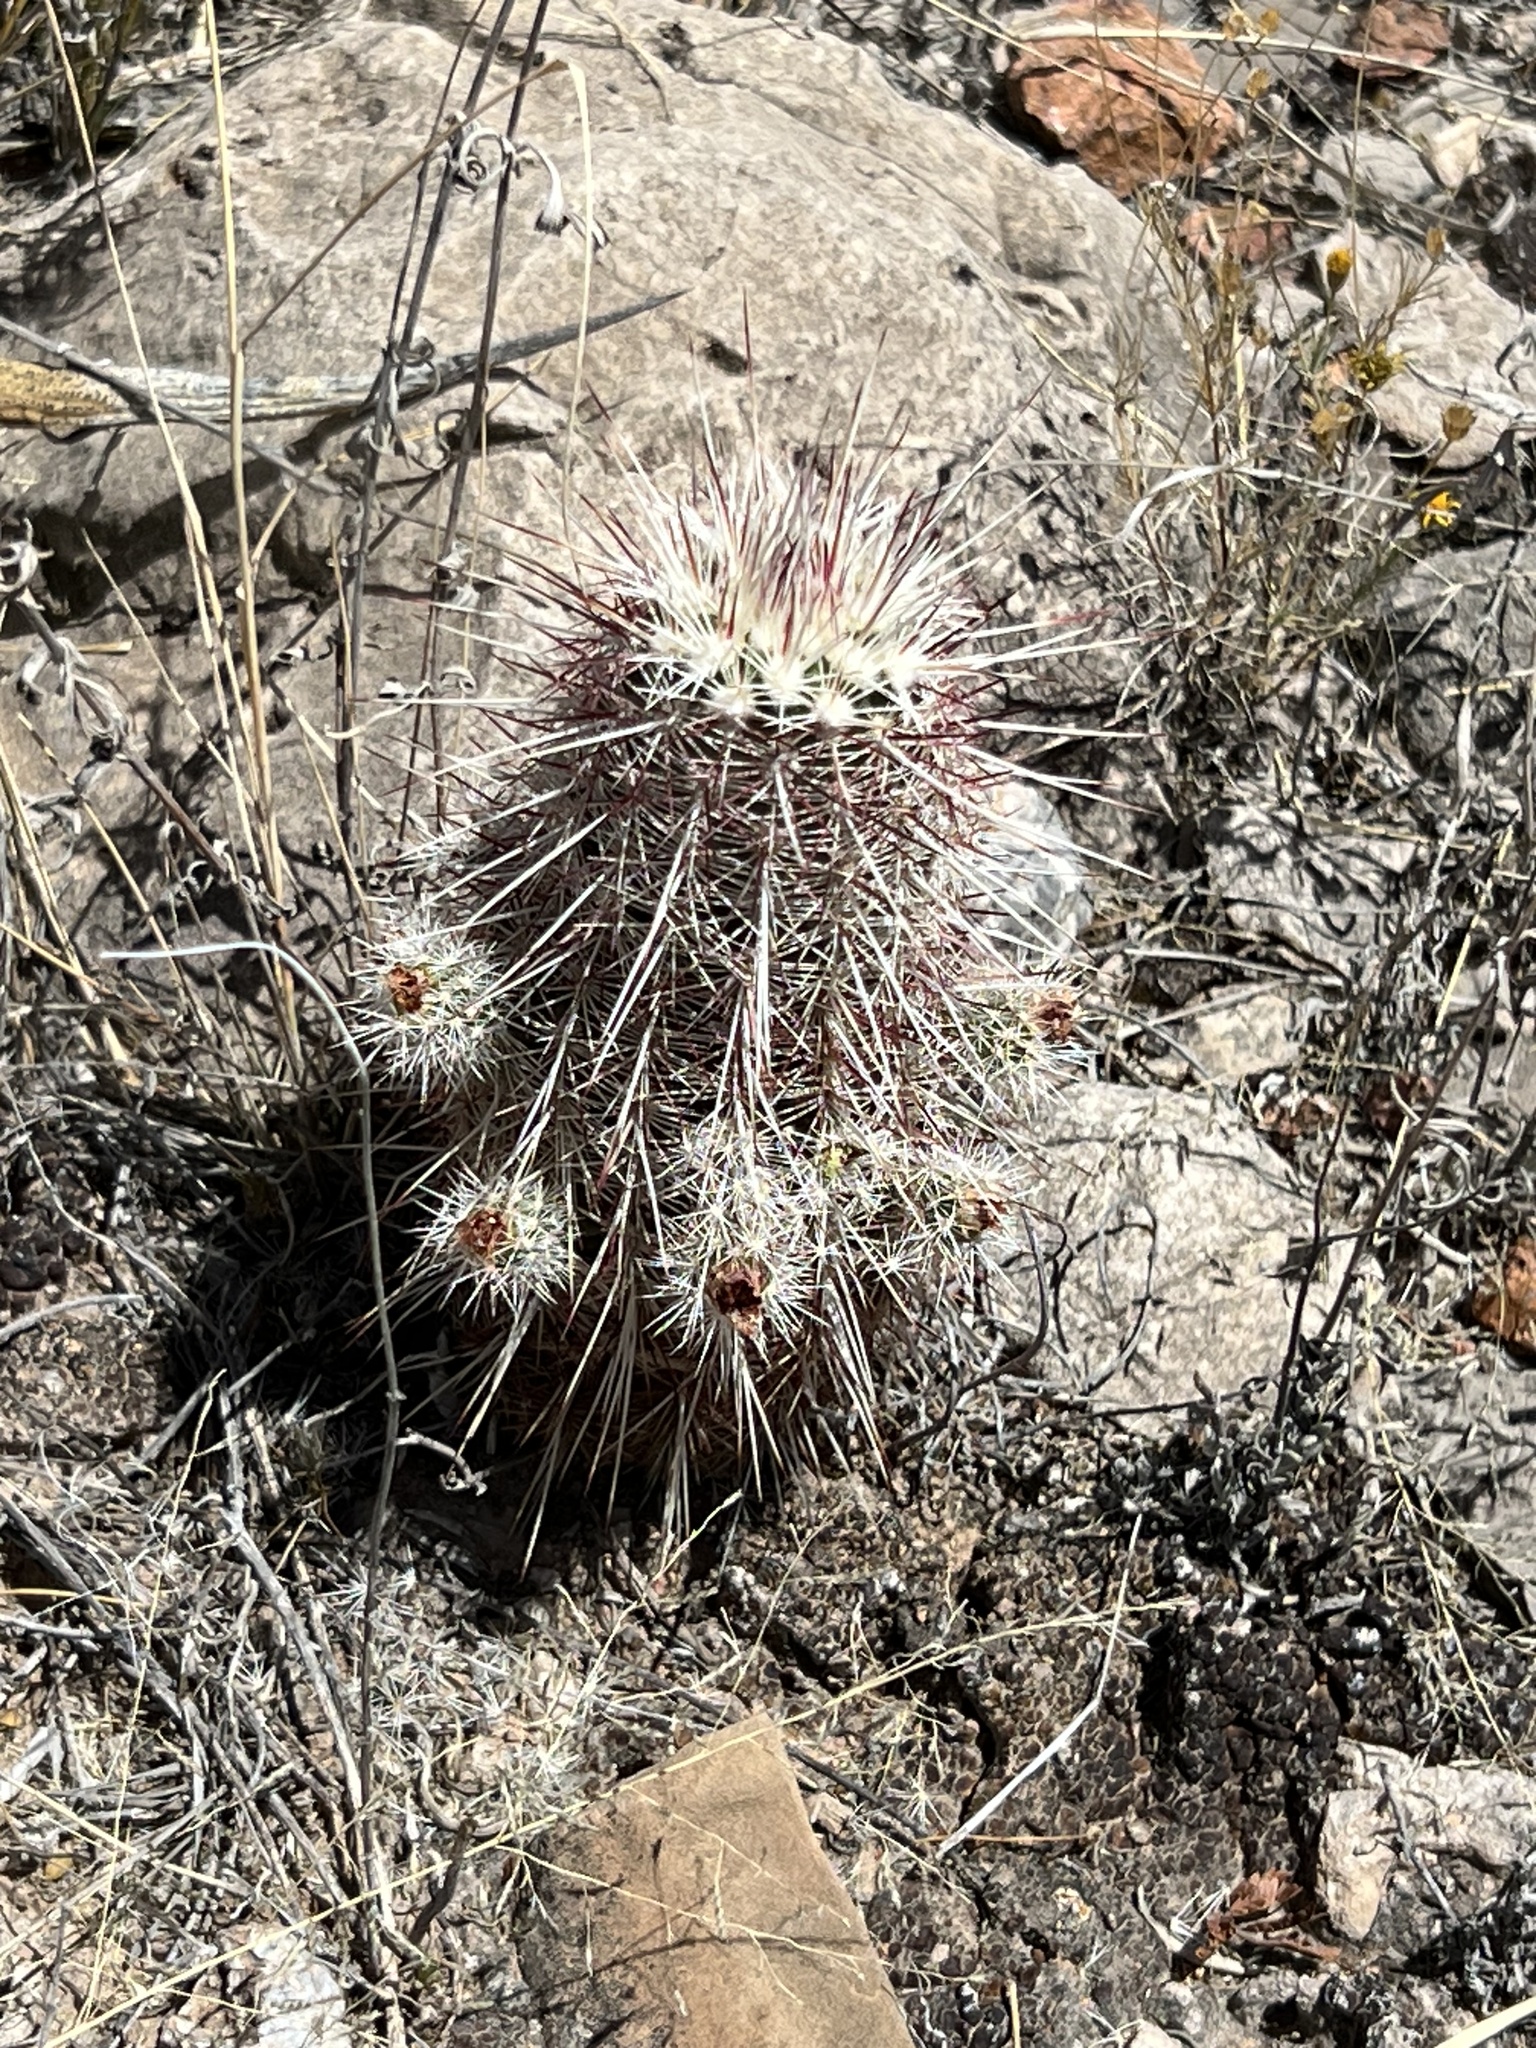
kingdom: Plantae
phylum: Tracheophyta
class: Magnoliopsida
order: Caryophyllales
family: Cactaceae
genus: Echinocereus
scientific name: Echinocereus viridiflorus
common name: Nylon hedgehog cactus
